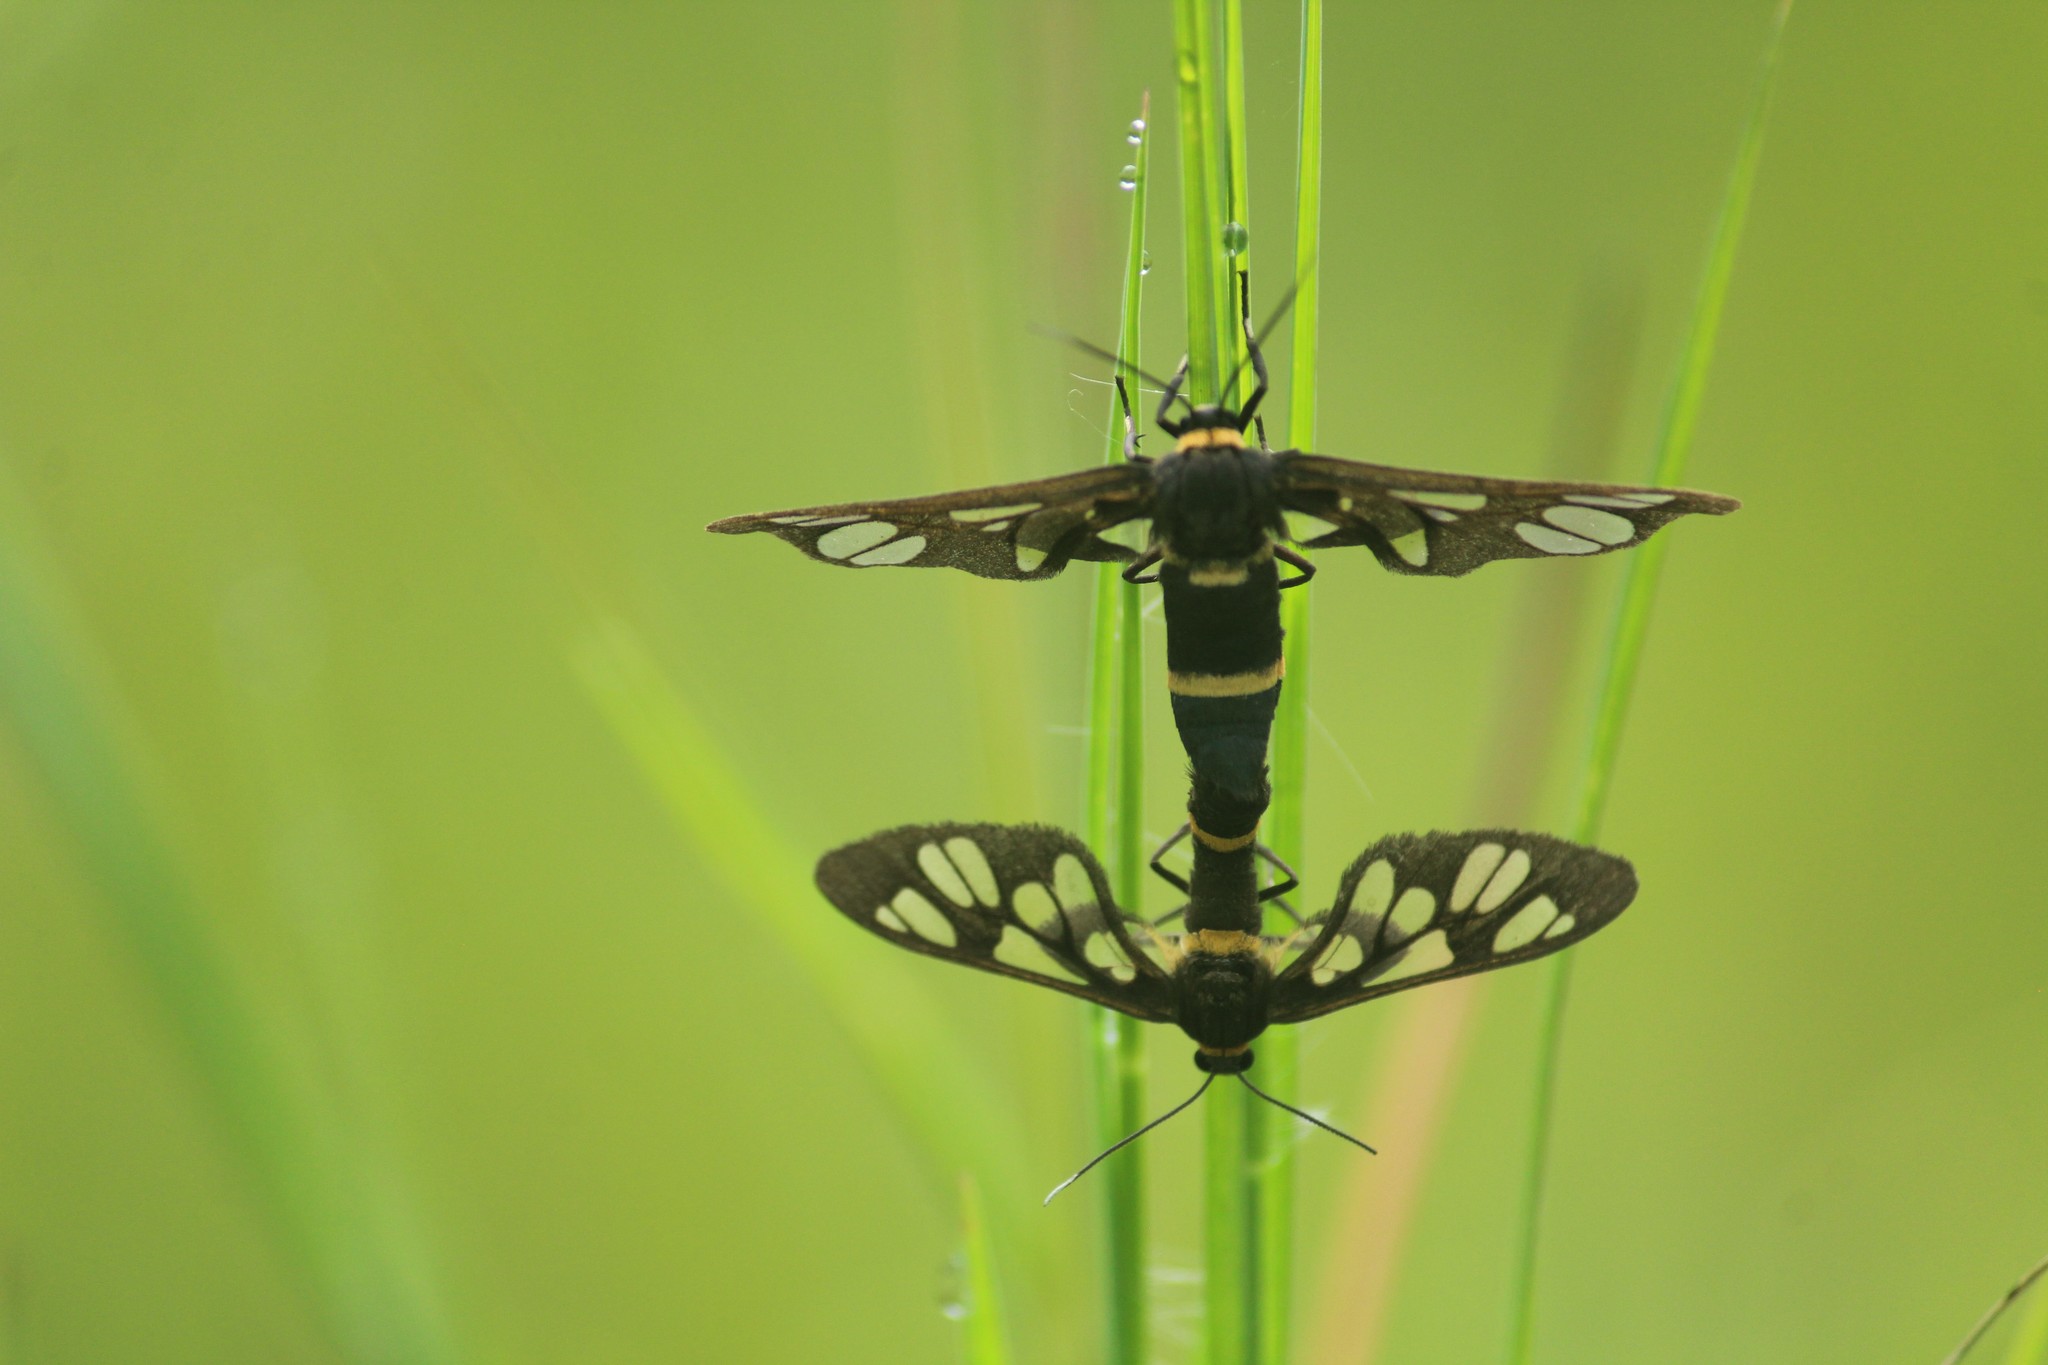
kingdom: Animalia
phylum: Arthropoda
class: Insecta
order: Lepidoptera
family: Erebidae
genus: Syntomoides
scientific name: Syntomoides imaon
